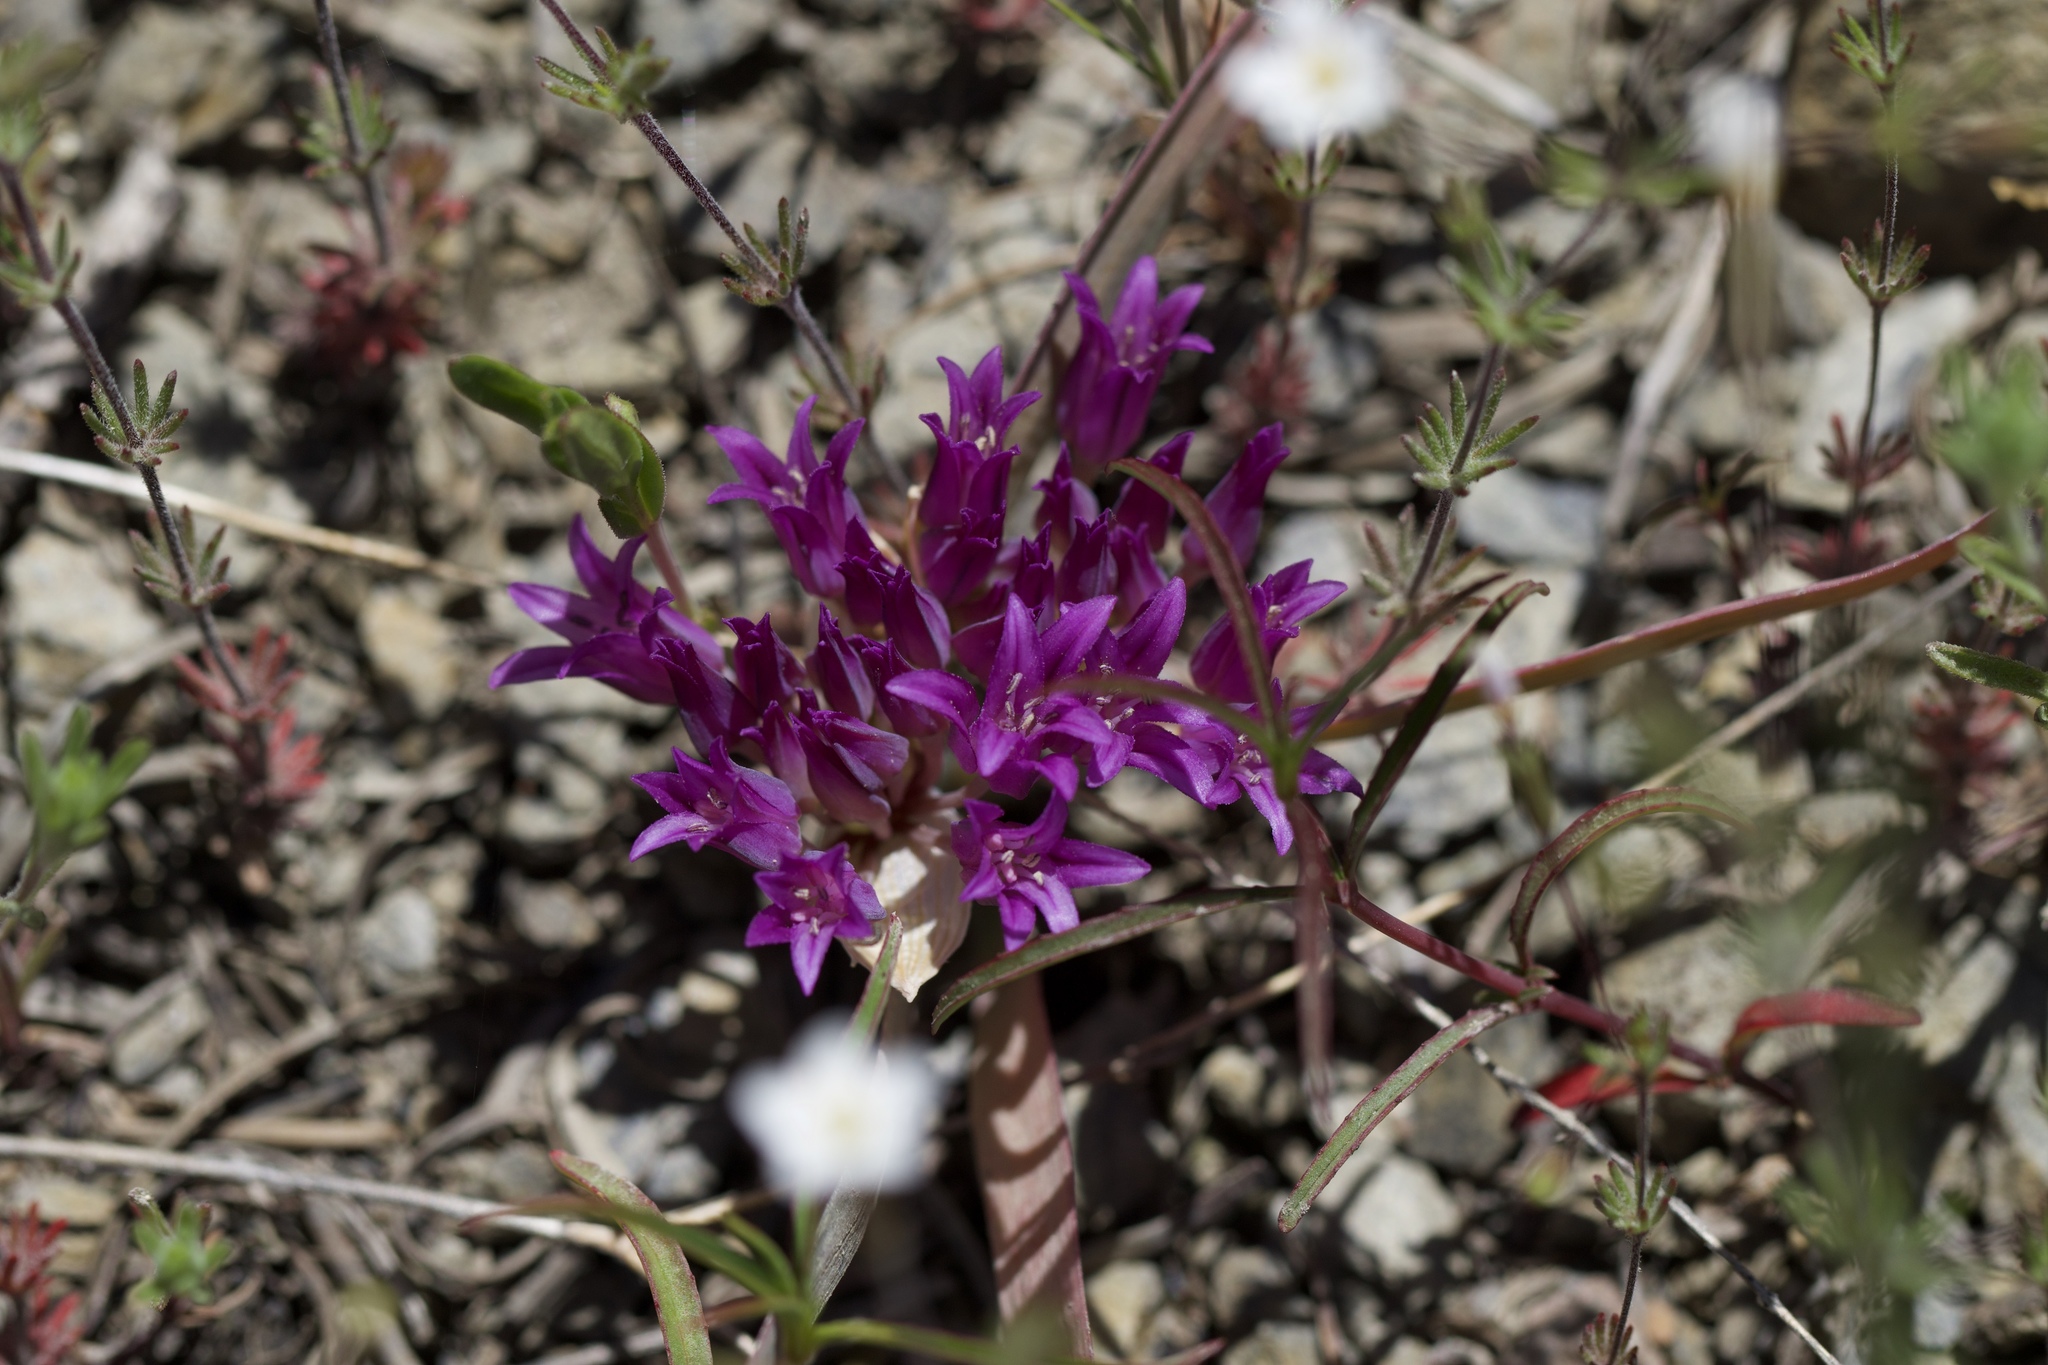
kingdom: Plantae
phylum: Tracheophyta
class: Liliopsida
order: Asparagales
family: Amaryllidaceae
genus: Allium
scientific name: Allium falcifolium
